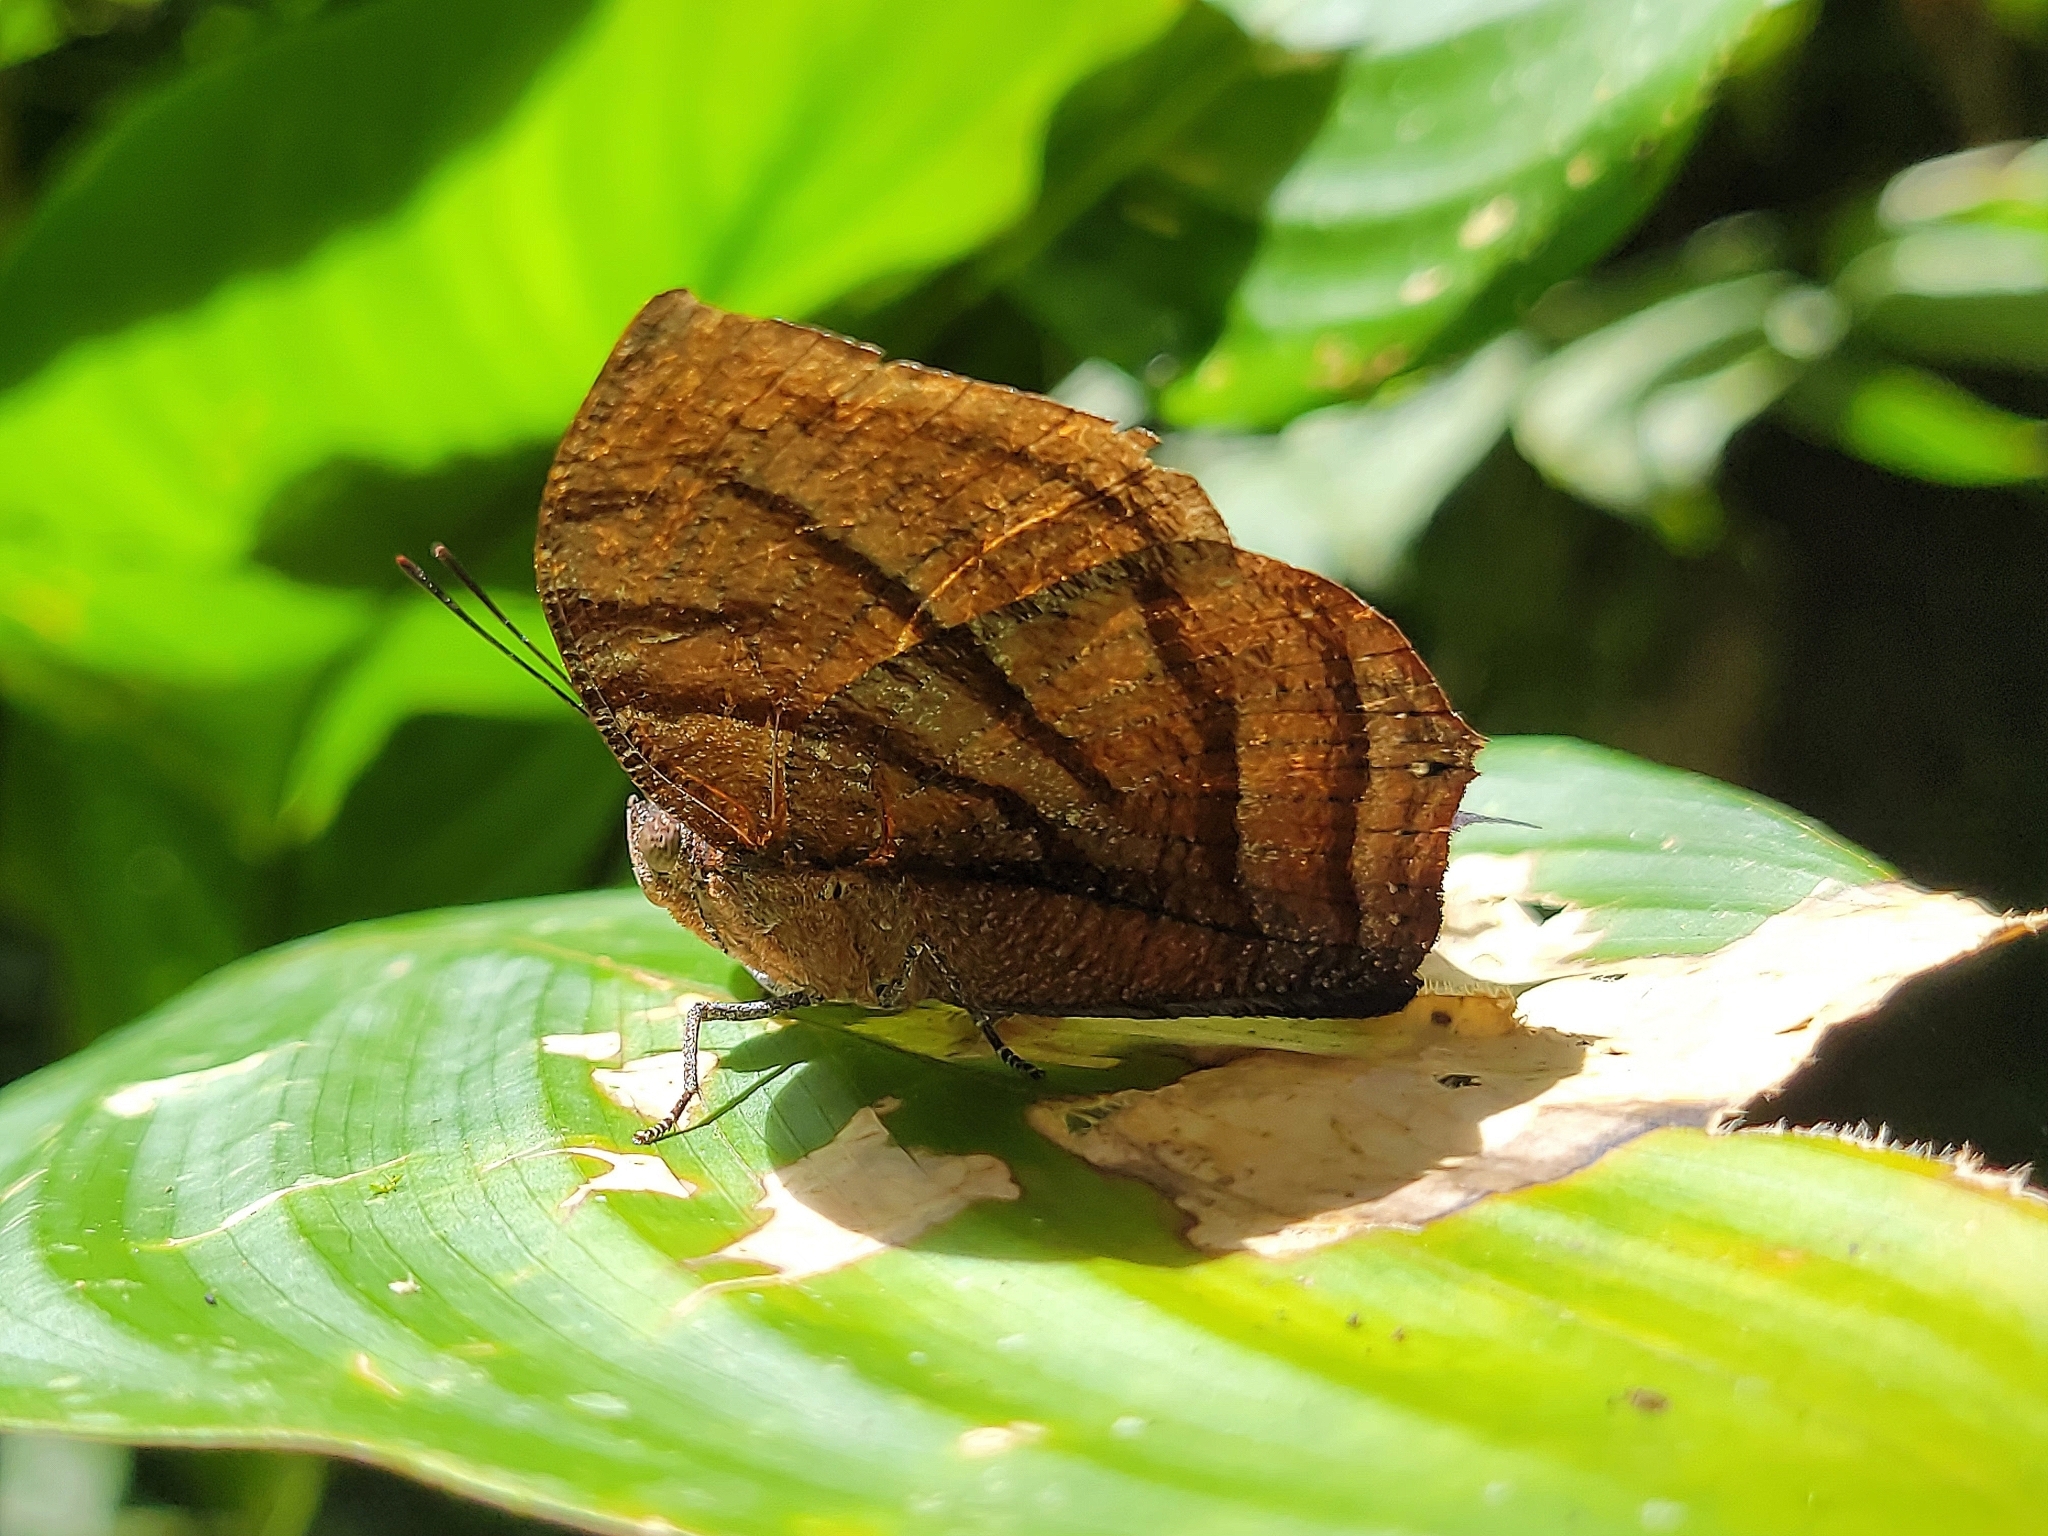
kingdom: Animalia
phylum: Arthropoda
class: Insecta
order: Lepidoptera
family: Nymphalidae
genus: Anaea
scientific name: Anaea philumena
